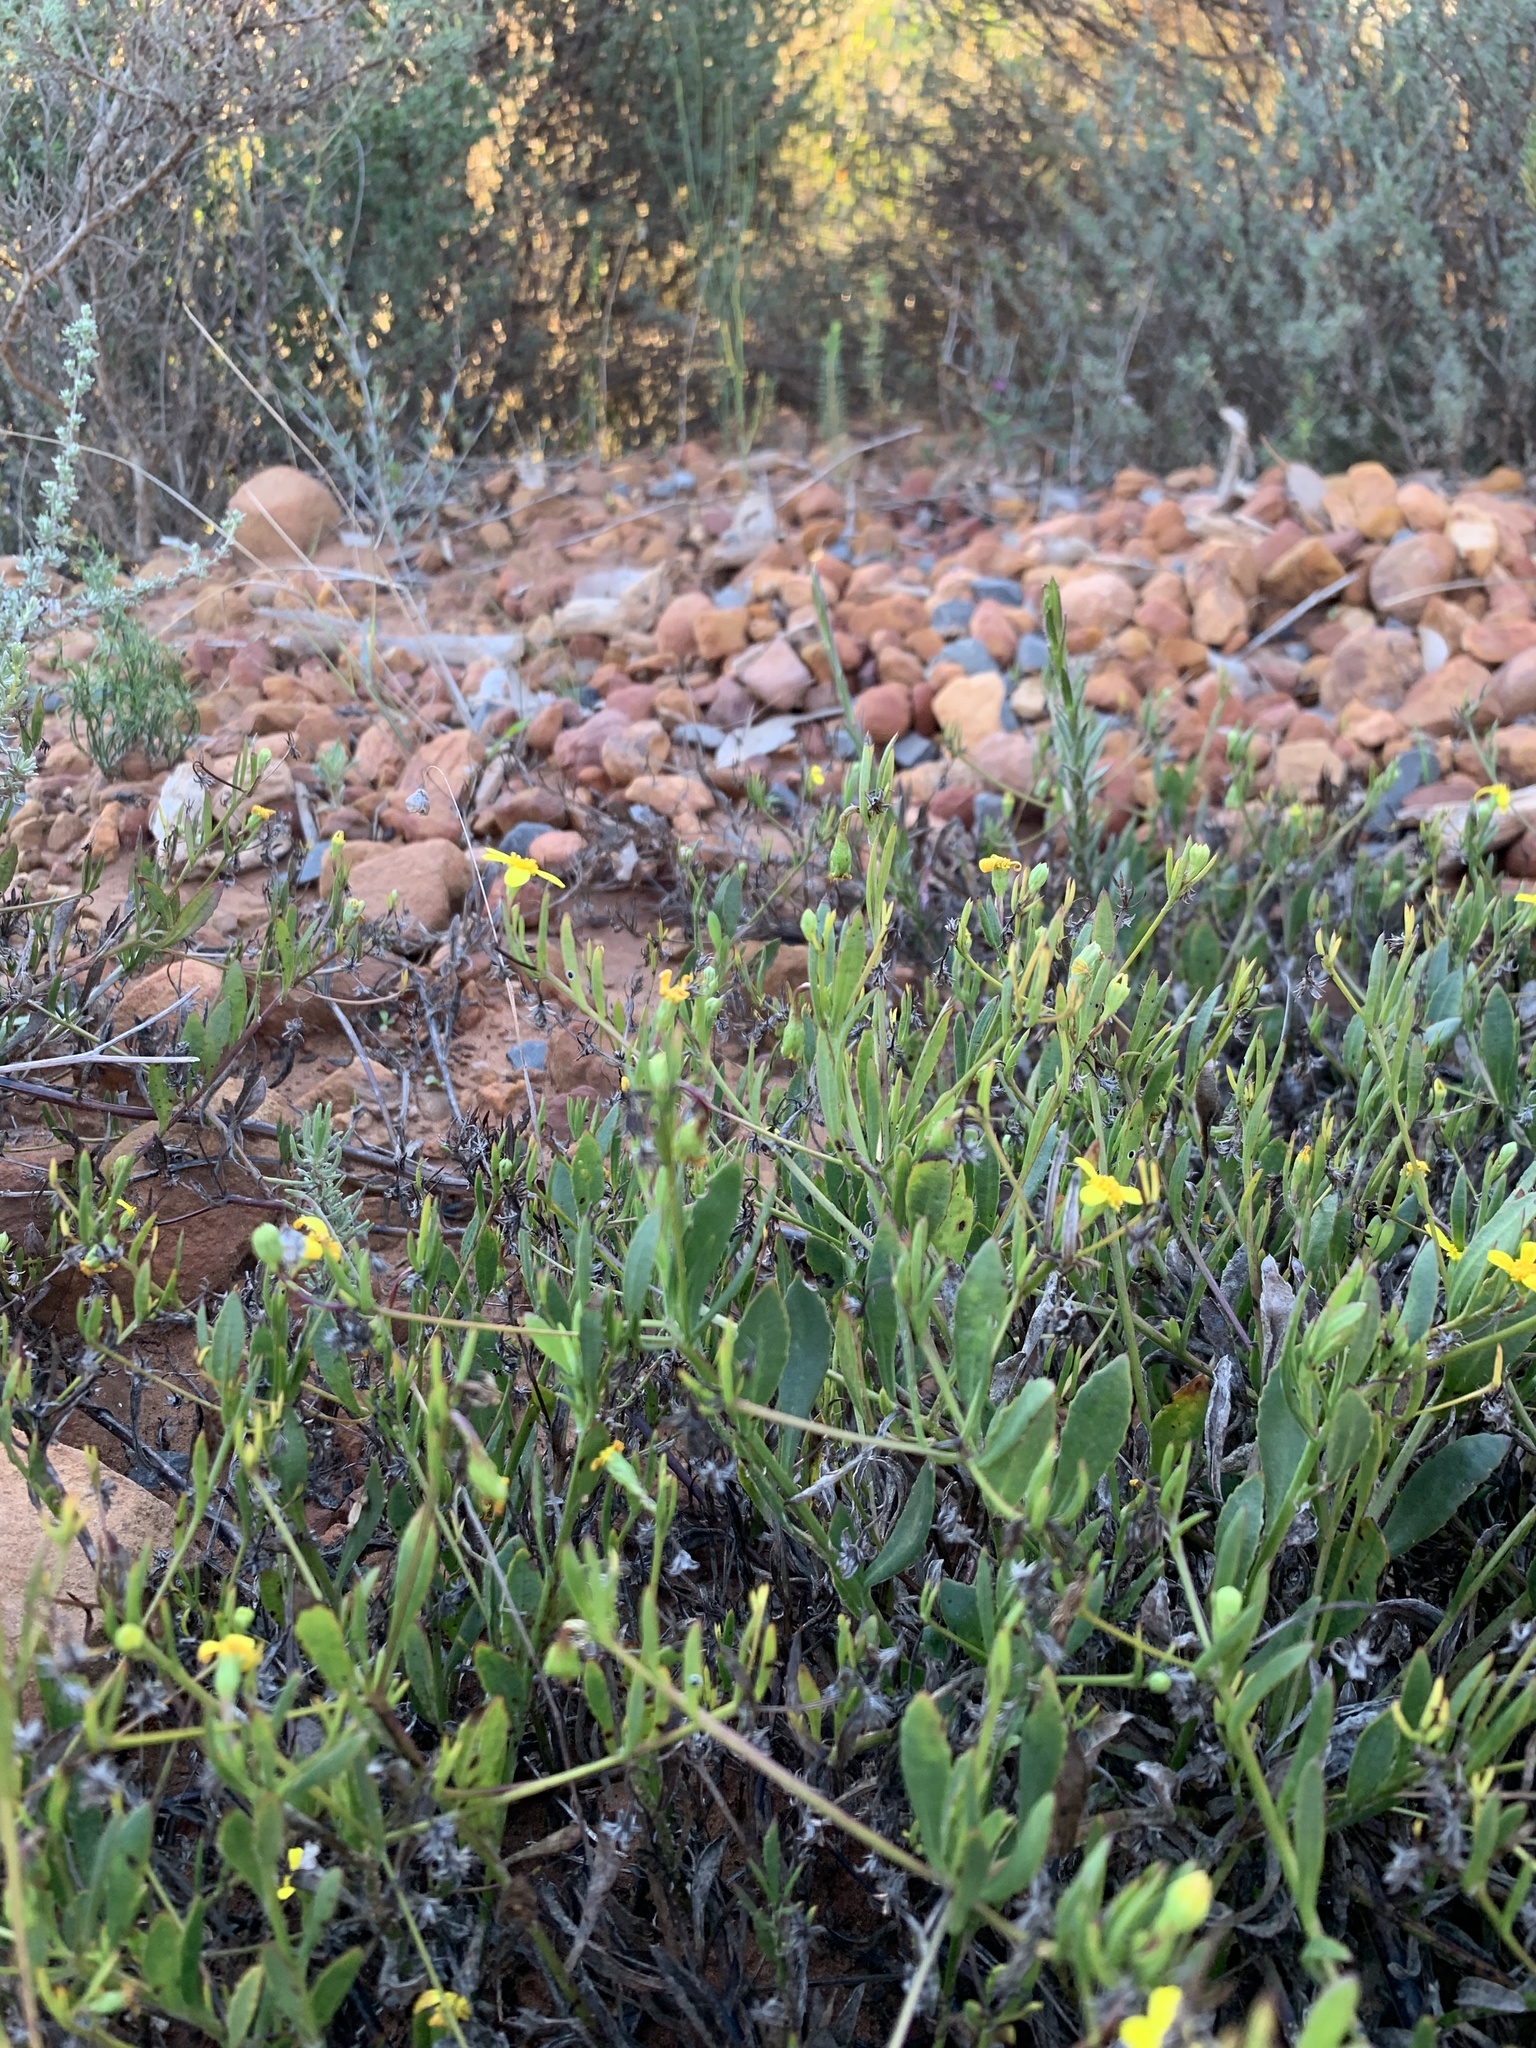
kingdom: Plantae
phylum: Tracheophyta
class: Magnoliopsida
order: Asterales
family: Asteraceae
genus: Osteospermum
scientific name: Osteospermum ciliatum
